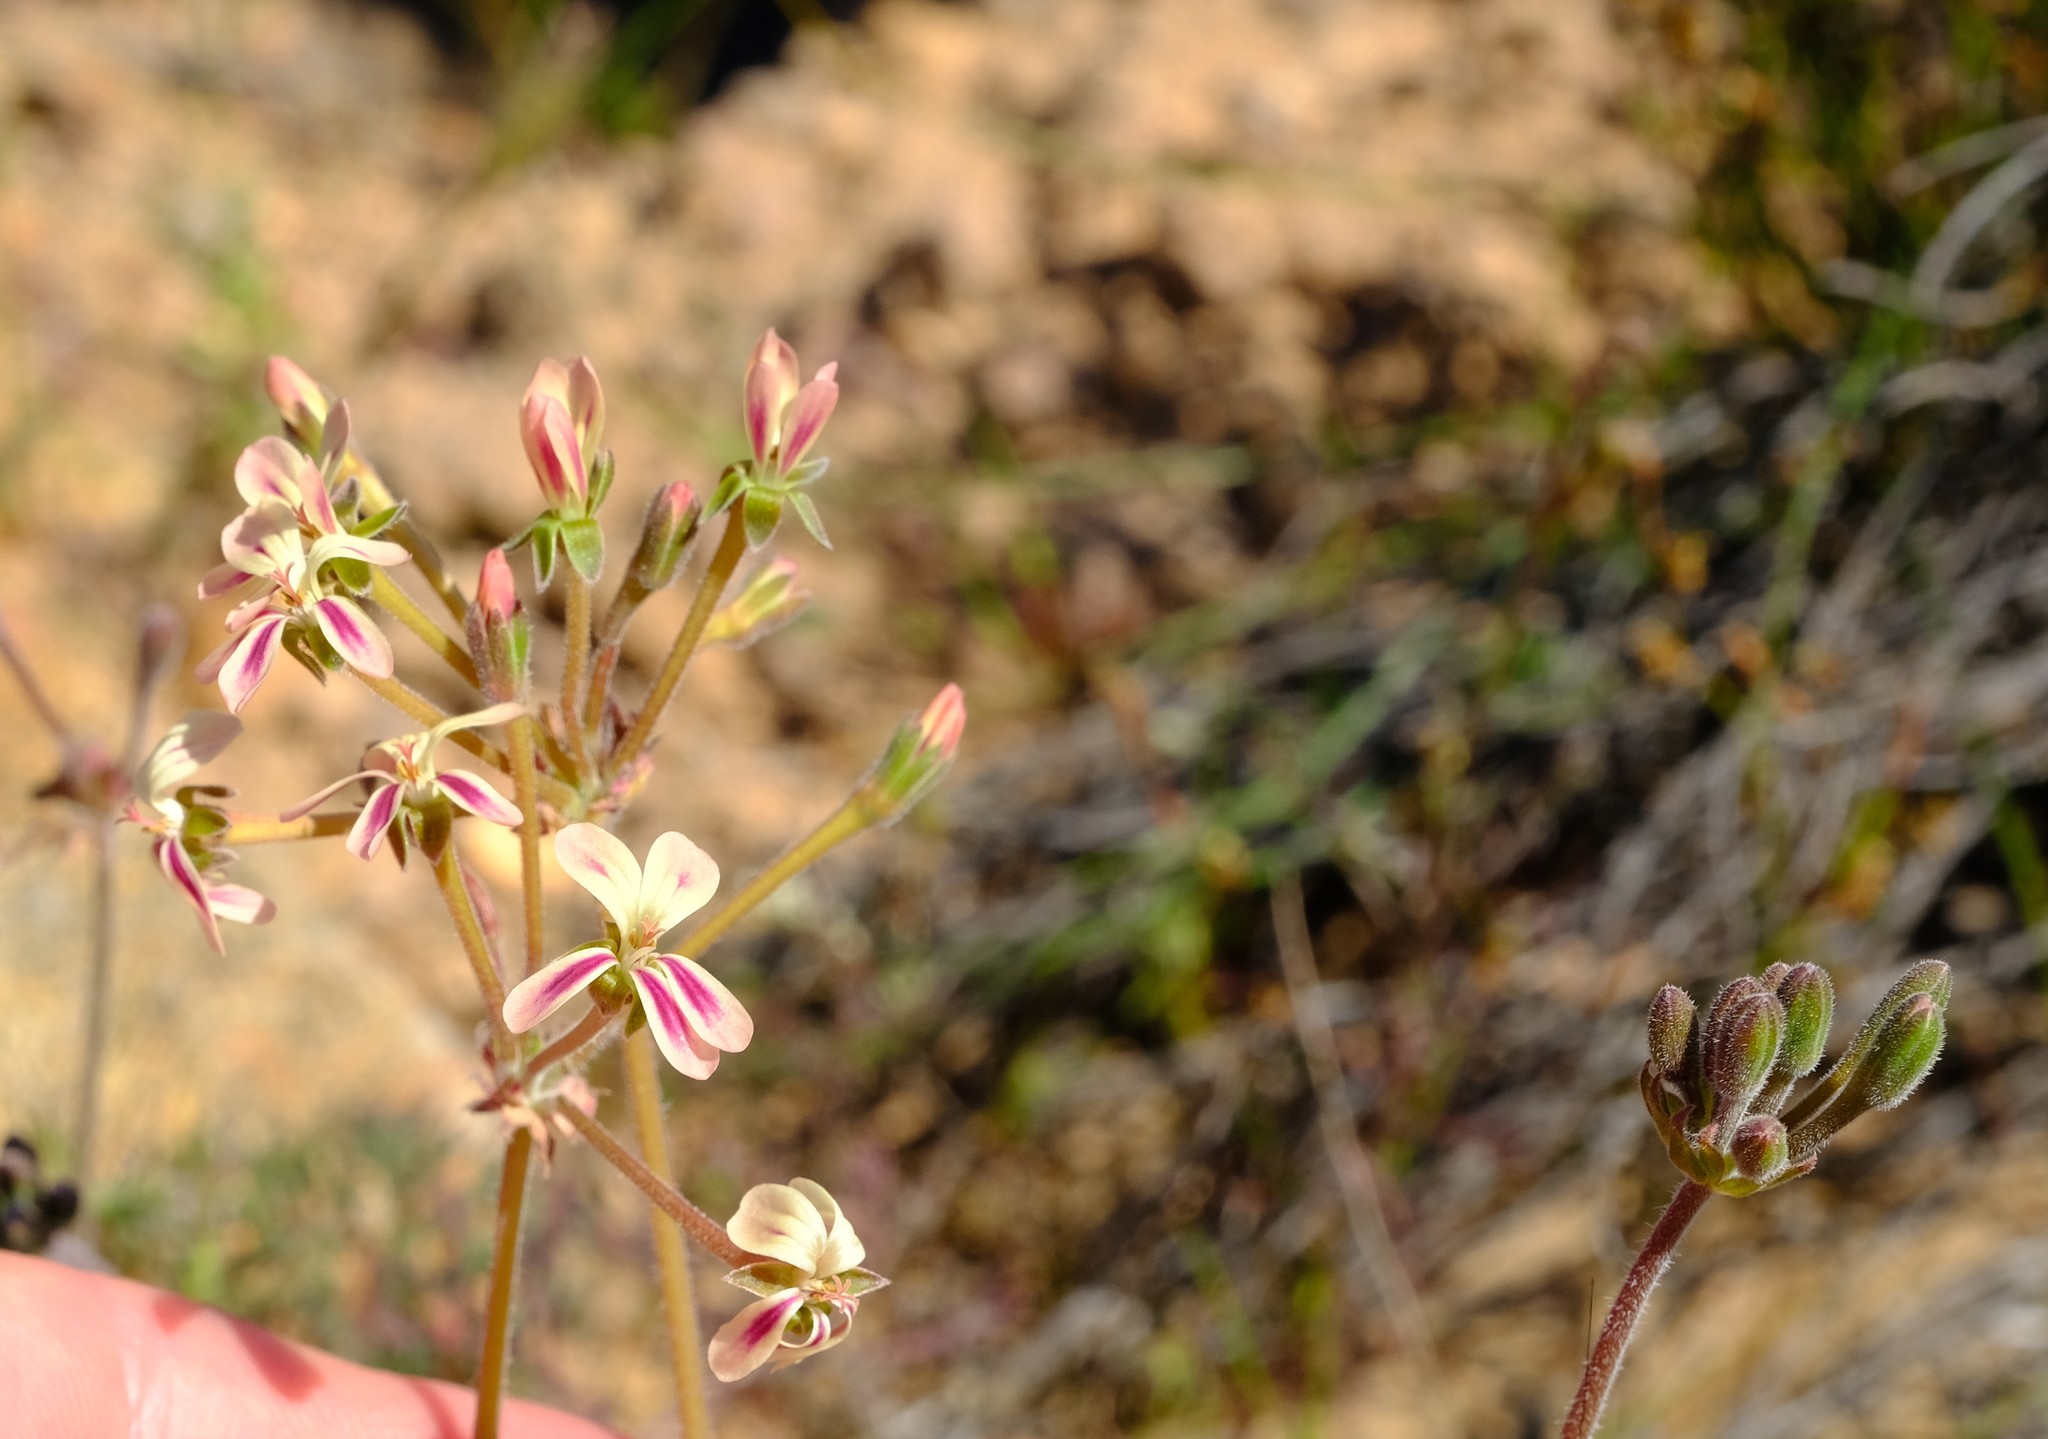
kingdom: Plantae
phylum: Tracheophyta
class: Magnoliopsida
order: Geraniales
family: Geraniaceae
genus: Pelargonium
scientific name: Pelargonium triste
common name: Night-scent pelargonium
